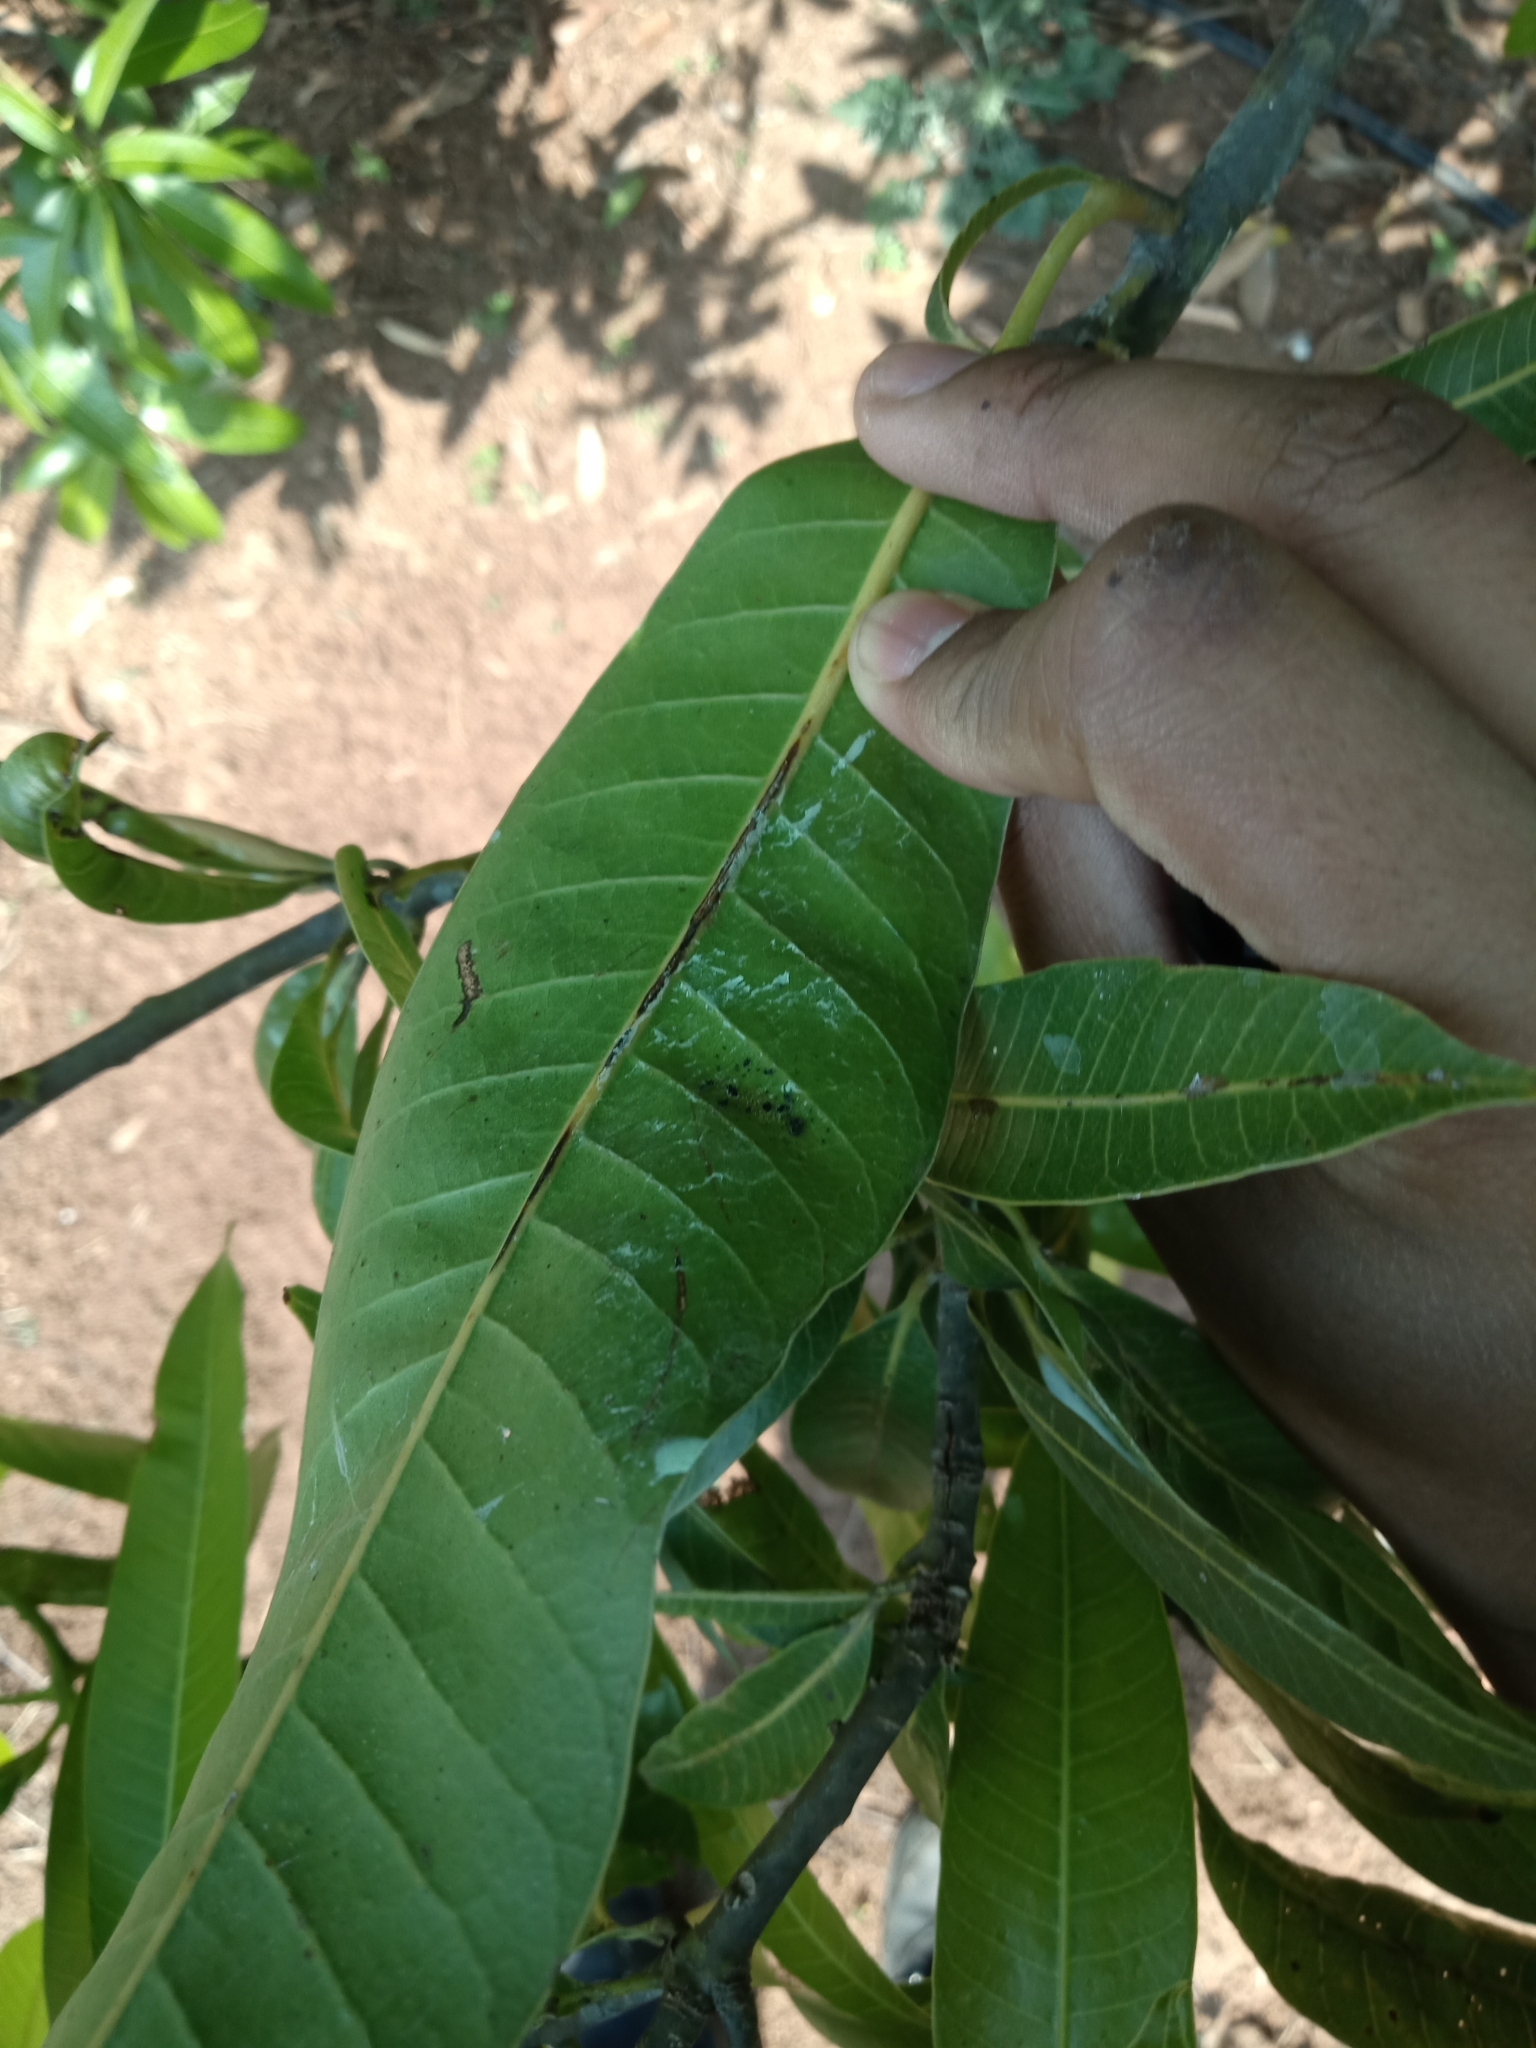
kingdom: Plantae
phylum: Tracheophyta
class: Magnoliopsida
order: Sapindales
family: Anacardiaceae
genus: Mangifera
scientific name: Mangifera indica
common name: Mango
